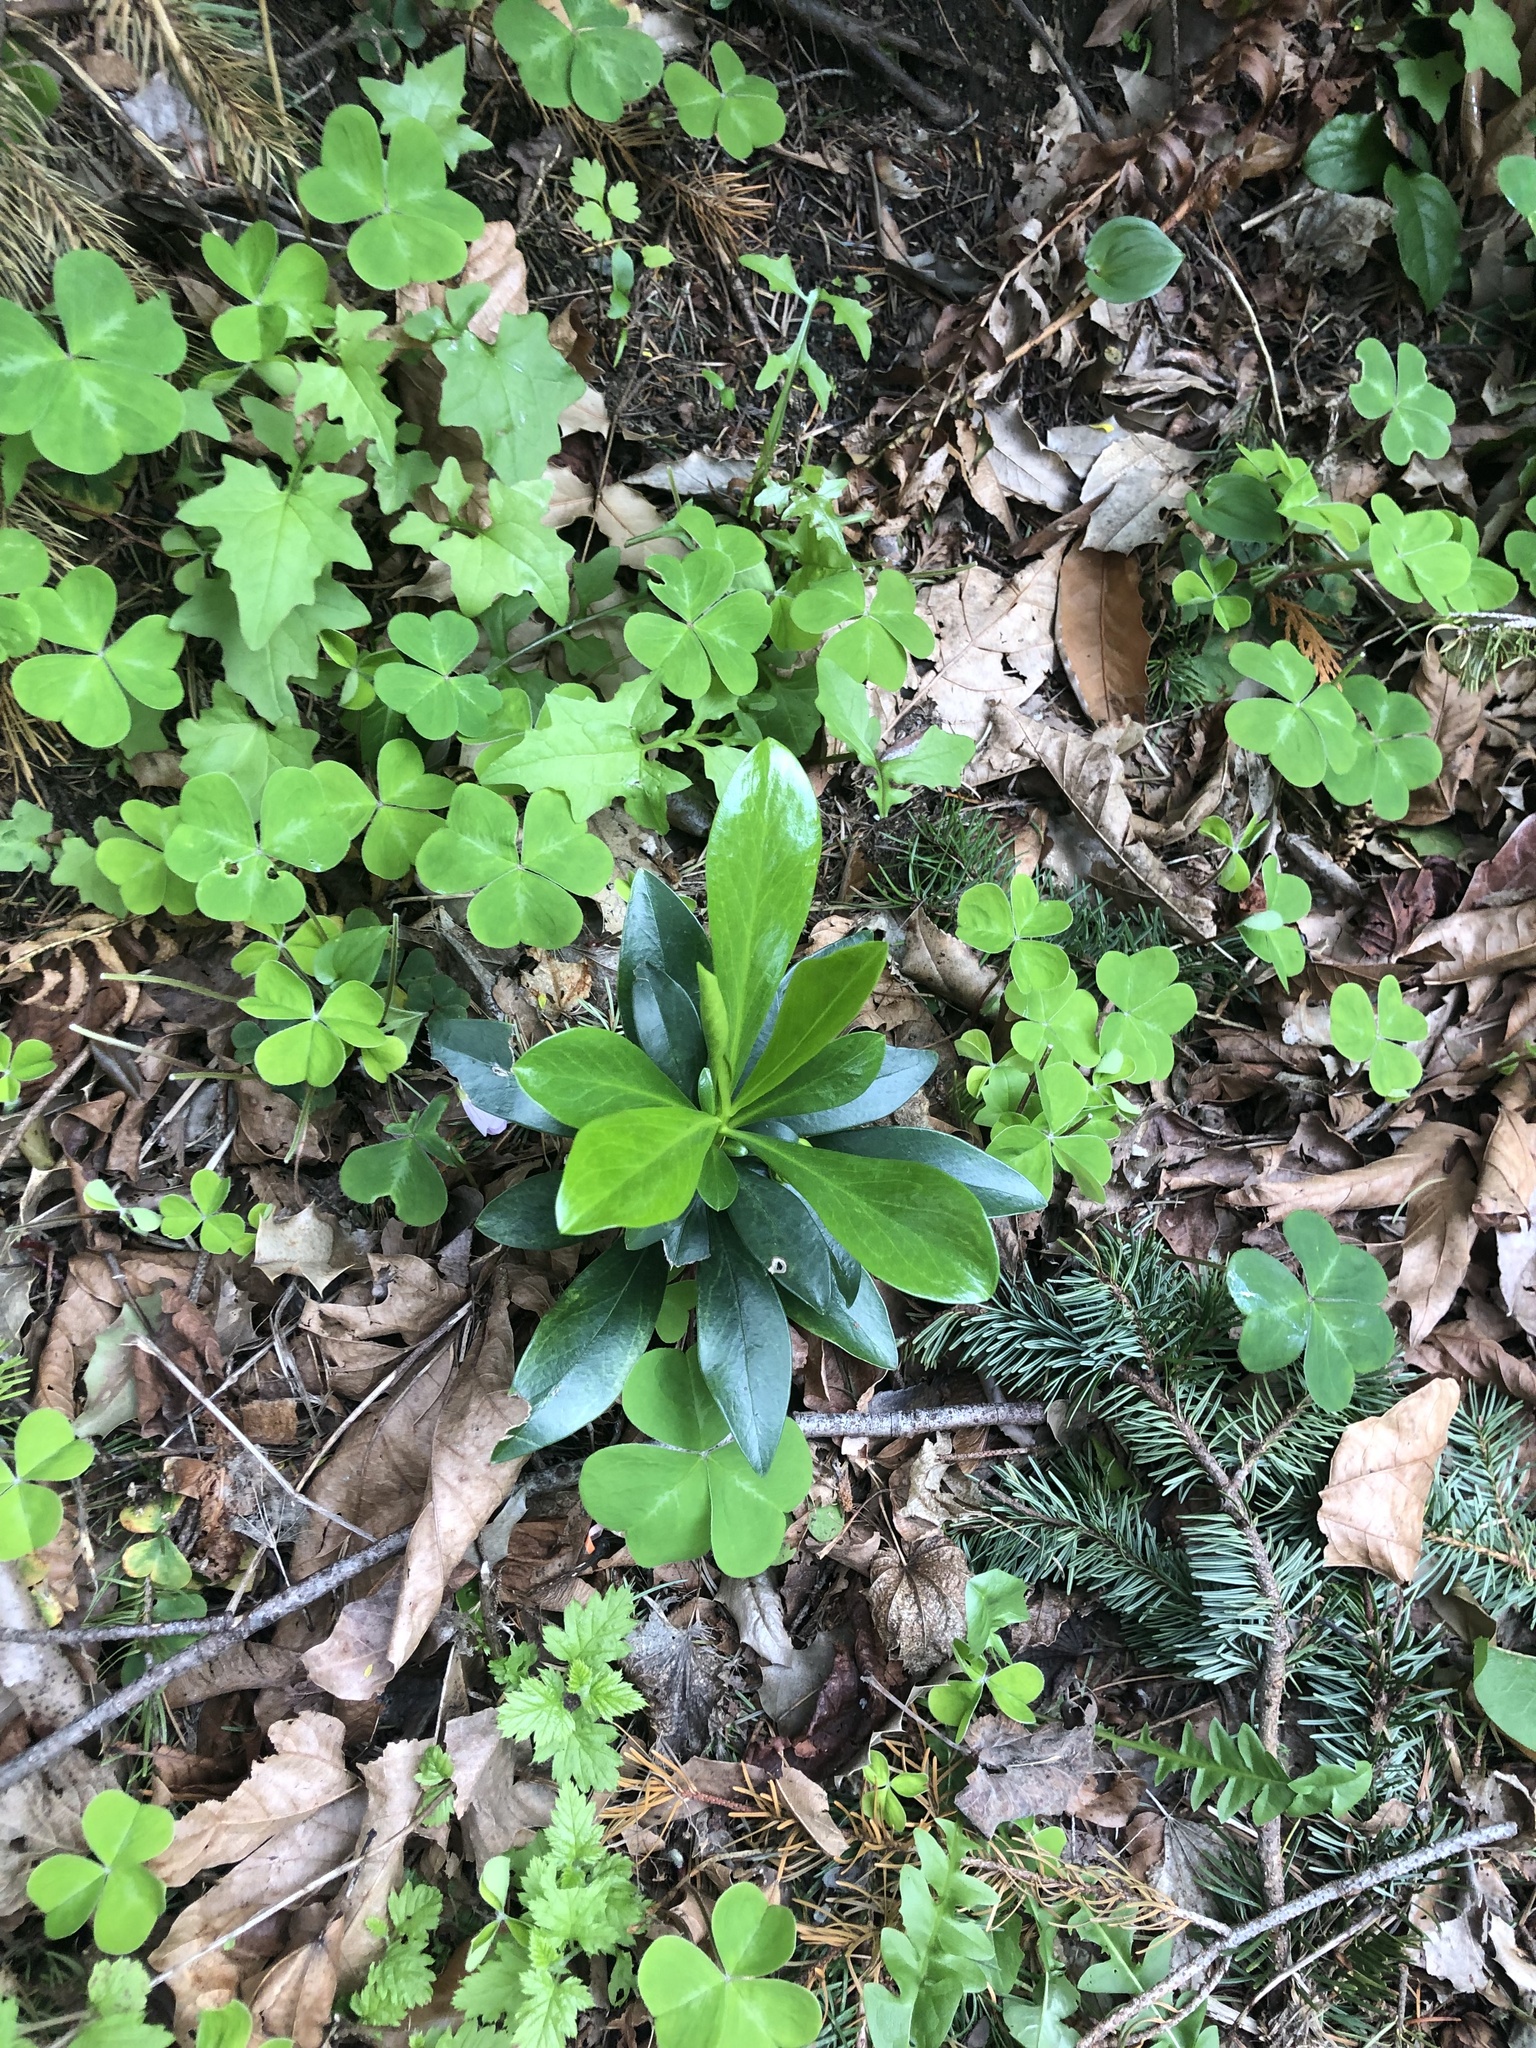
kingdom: Plantae
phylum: Tracheophyta
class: Magnoliopsida
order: Malvales
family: Thymelaeaceae
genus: Daphne
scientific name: Daphne laureola
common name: Spurge-laurel
